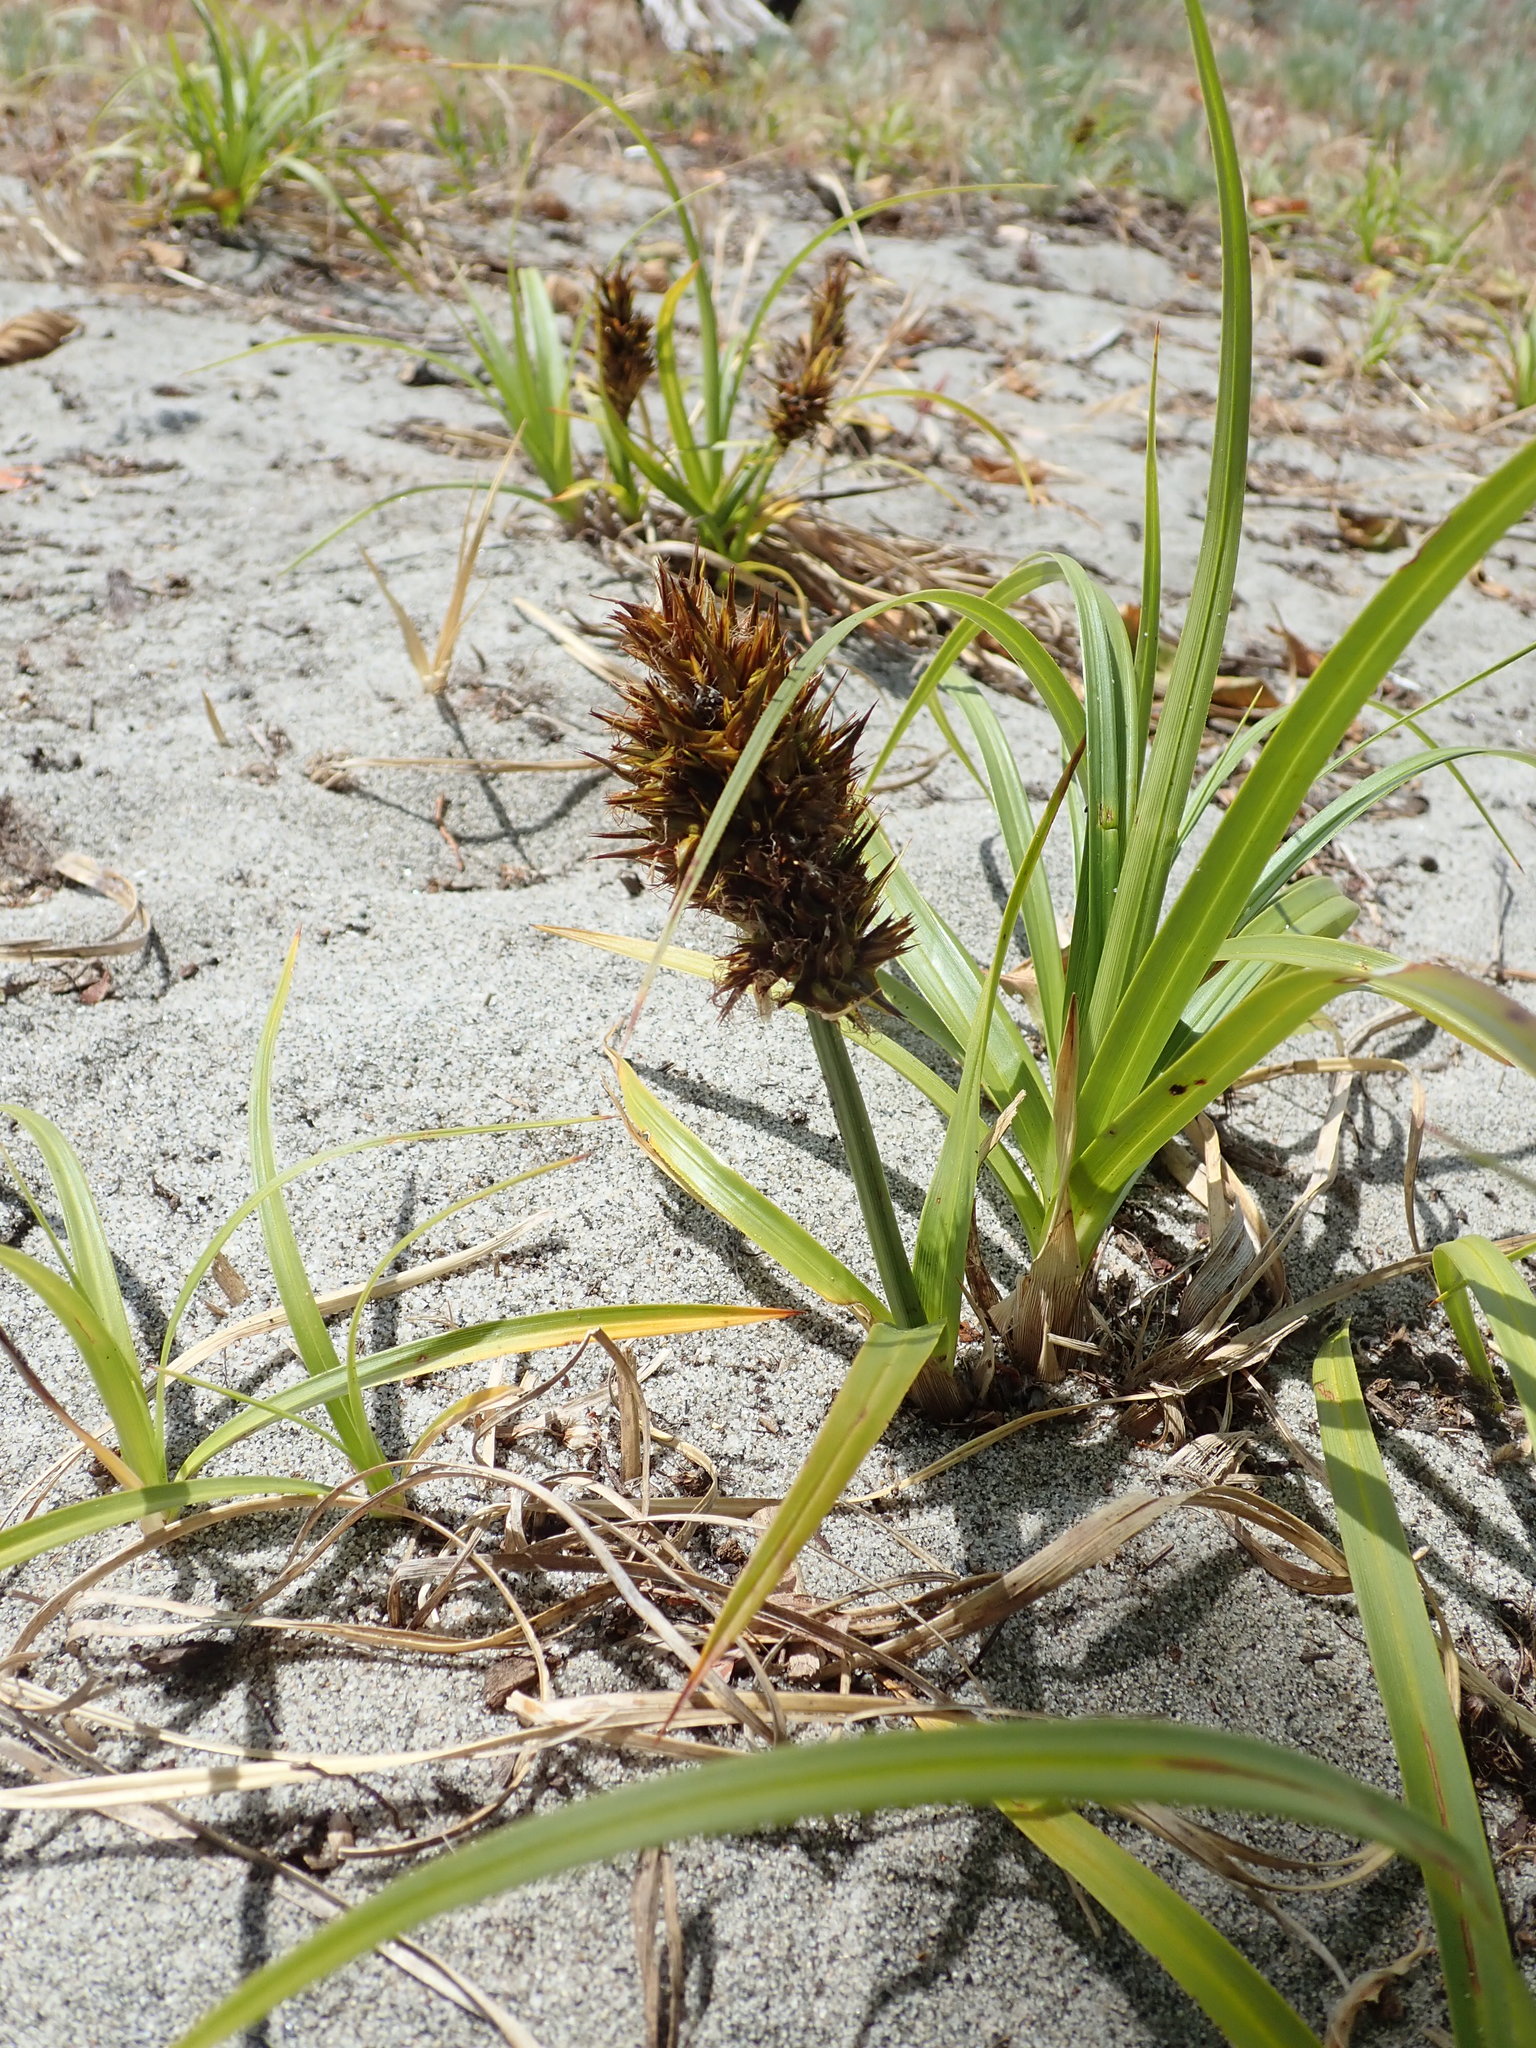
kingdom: Plantae
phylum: Tracheophyta
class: Liliopsida
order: Poales
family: Cyperaceae
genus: Carex
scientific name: Carex macrocephala
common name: Large-head sedge
